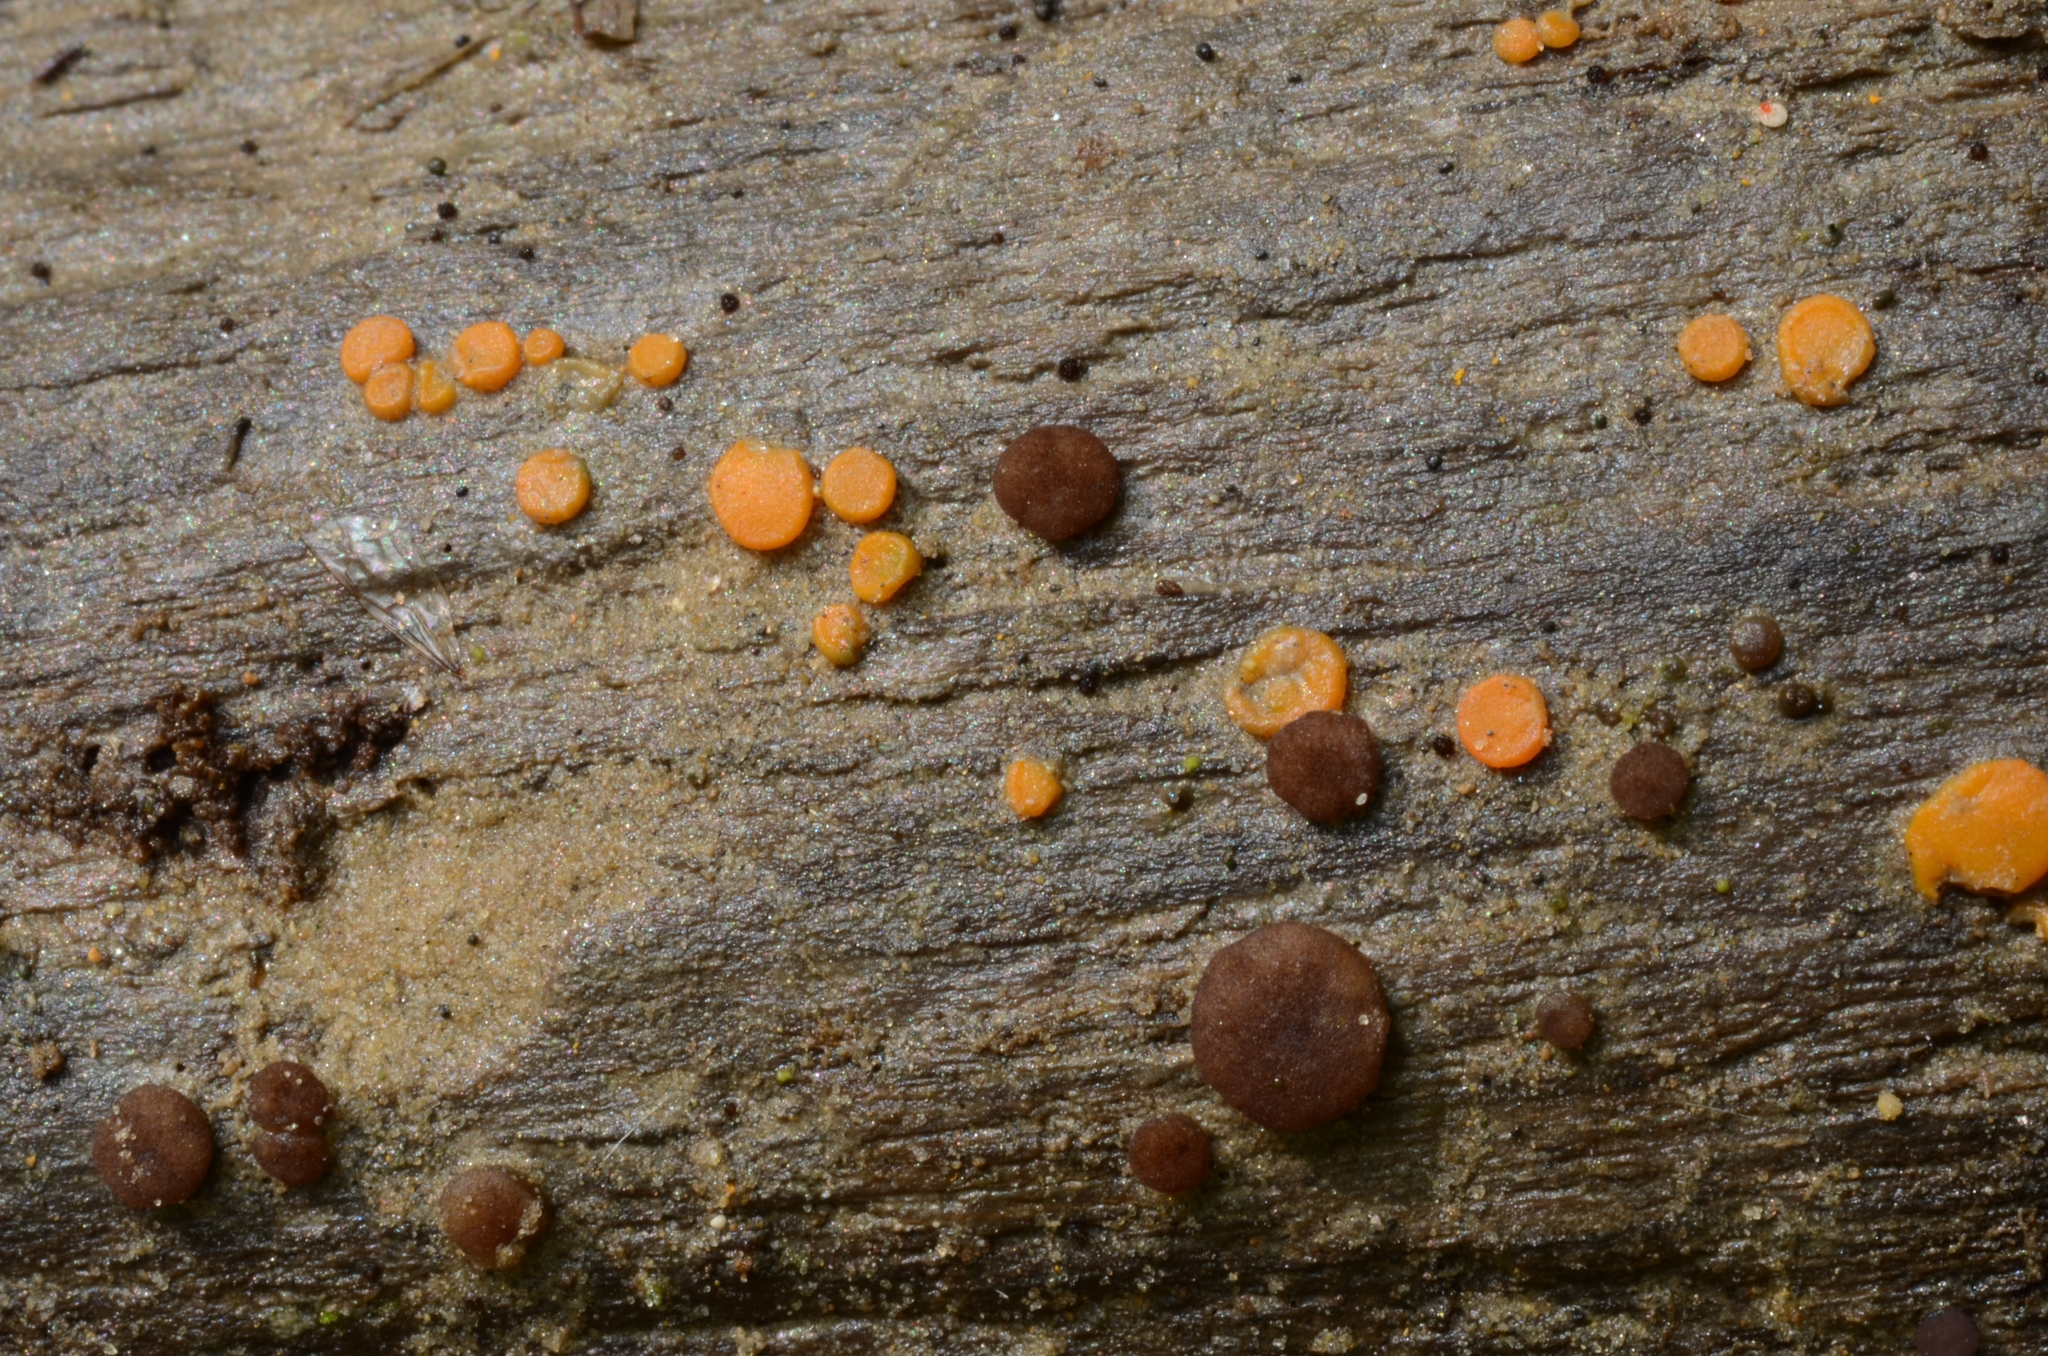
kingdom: Fungi
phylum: Ascomycota
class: Pezizomycetes
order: Pezizales
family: Pyronemataceae
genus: Miladina
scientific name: Miladina lecithina
